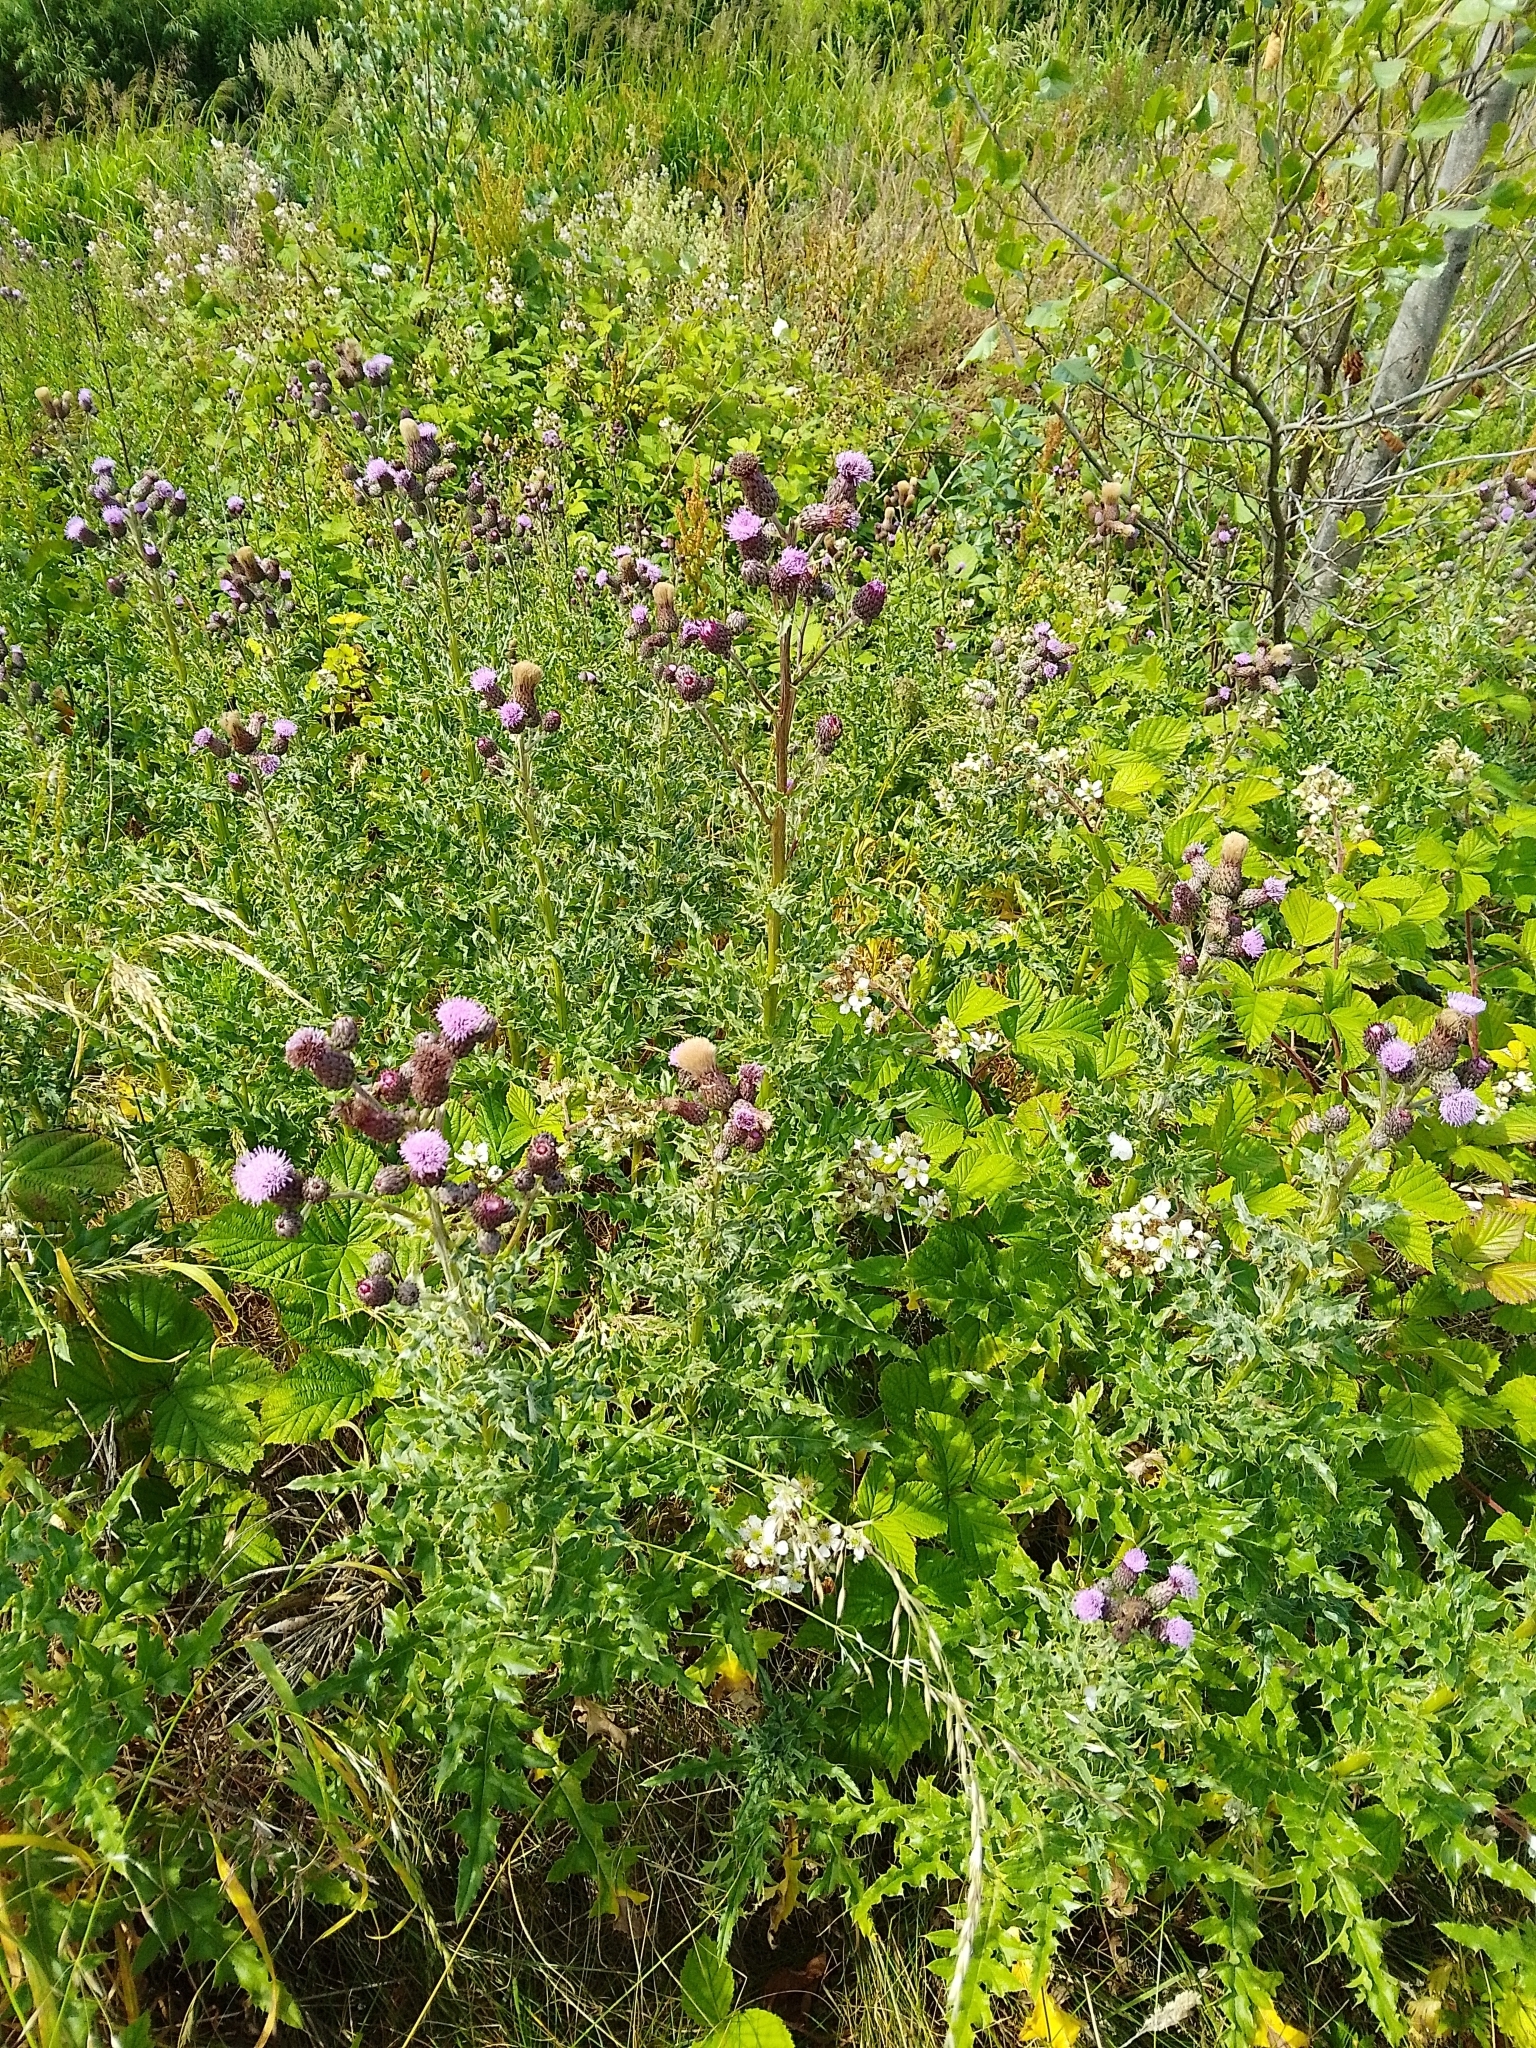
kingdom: Plantae
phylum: Tracheophyta
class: Magnoliopsida
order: Asterales
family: Asteraceae
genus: Cirsium
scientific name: Cirsium arvense
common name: Creeping thistle
